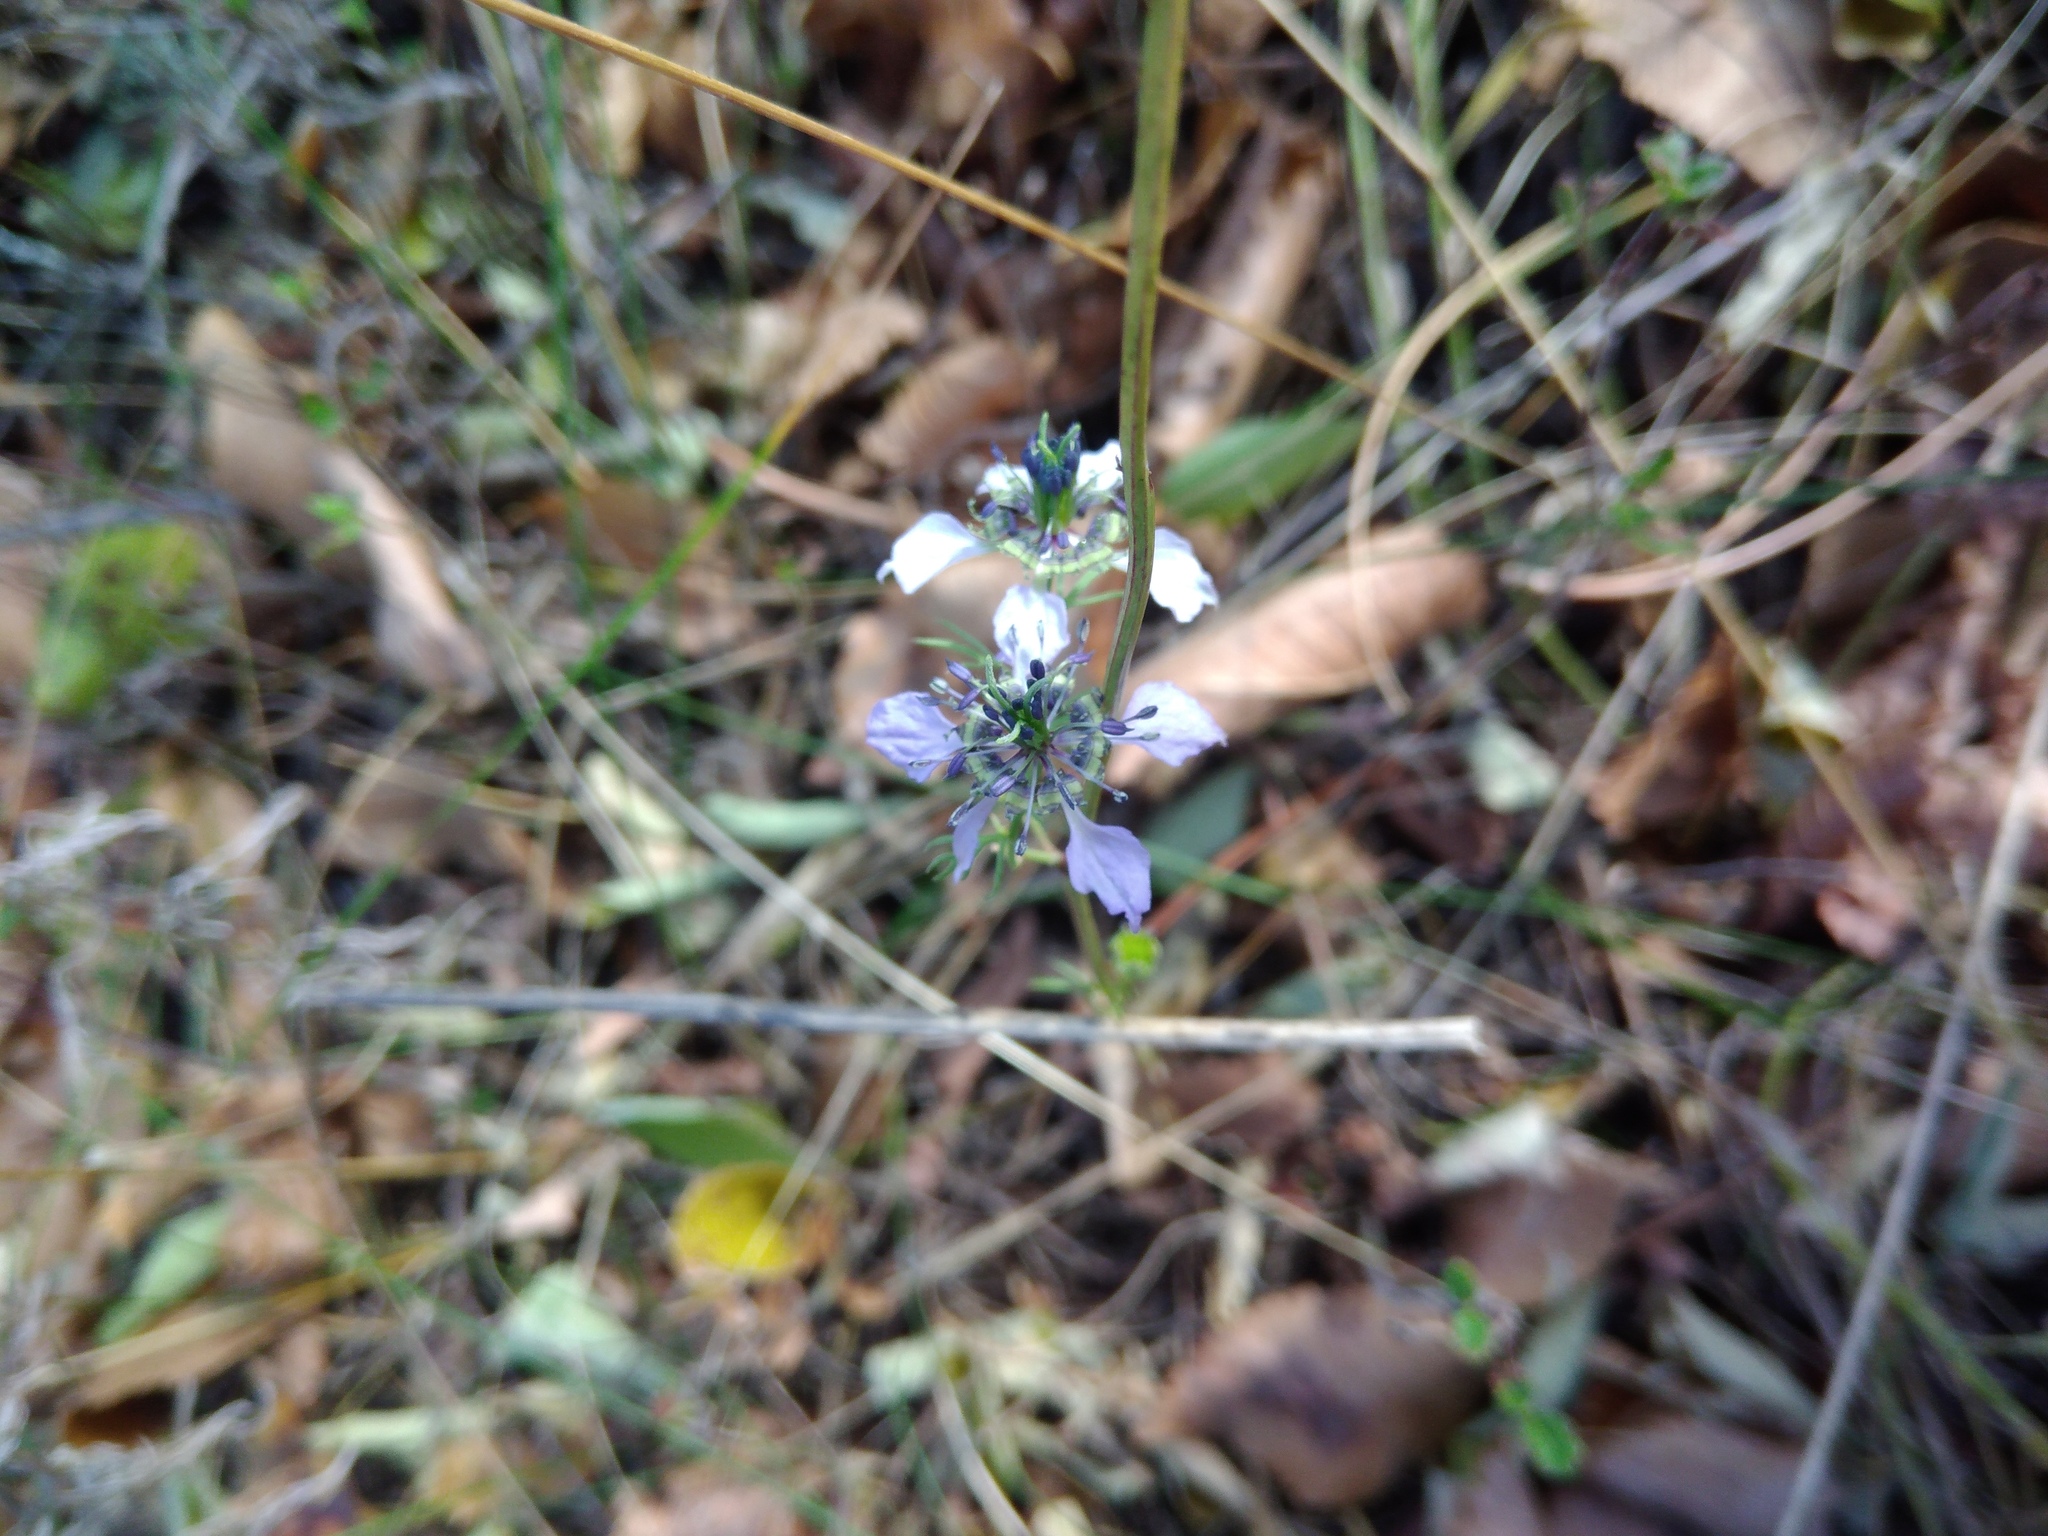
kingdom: Plantae
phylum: Tracheophyta
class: Magnoliopsida
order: Ranunculales
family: Ranunculaceae
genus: Nigella
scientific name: Nigella arvensis
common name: Wild fennel-flower
